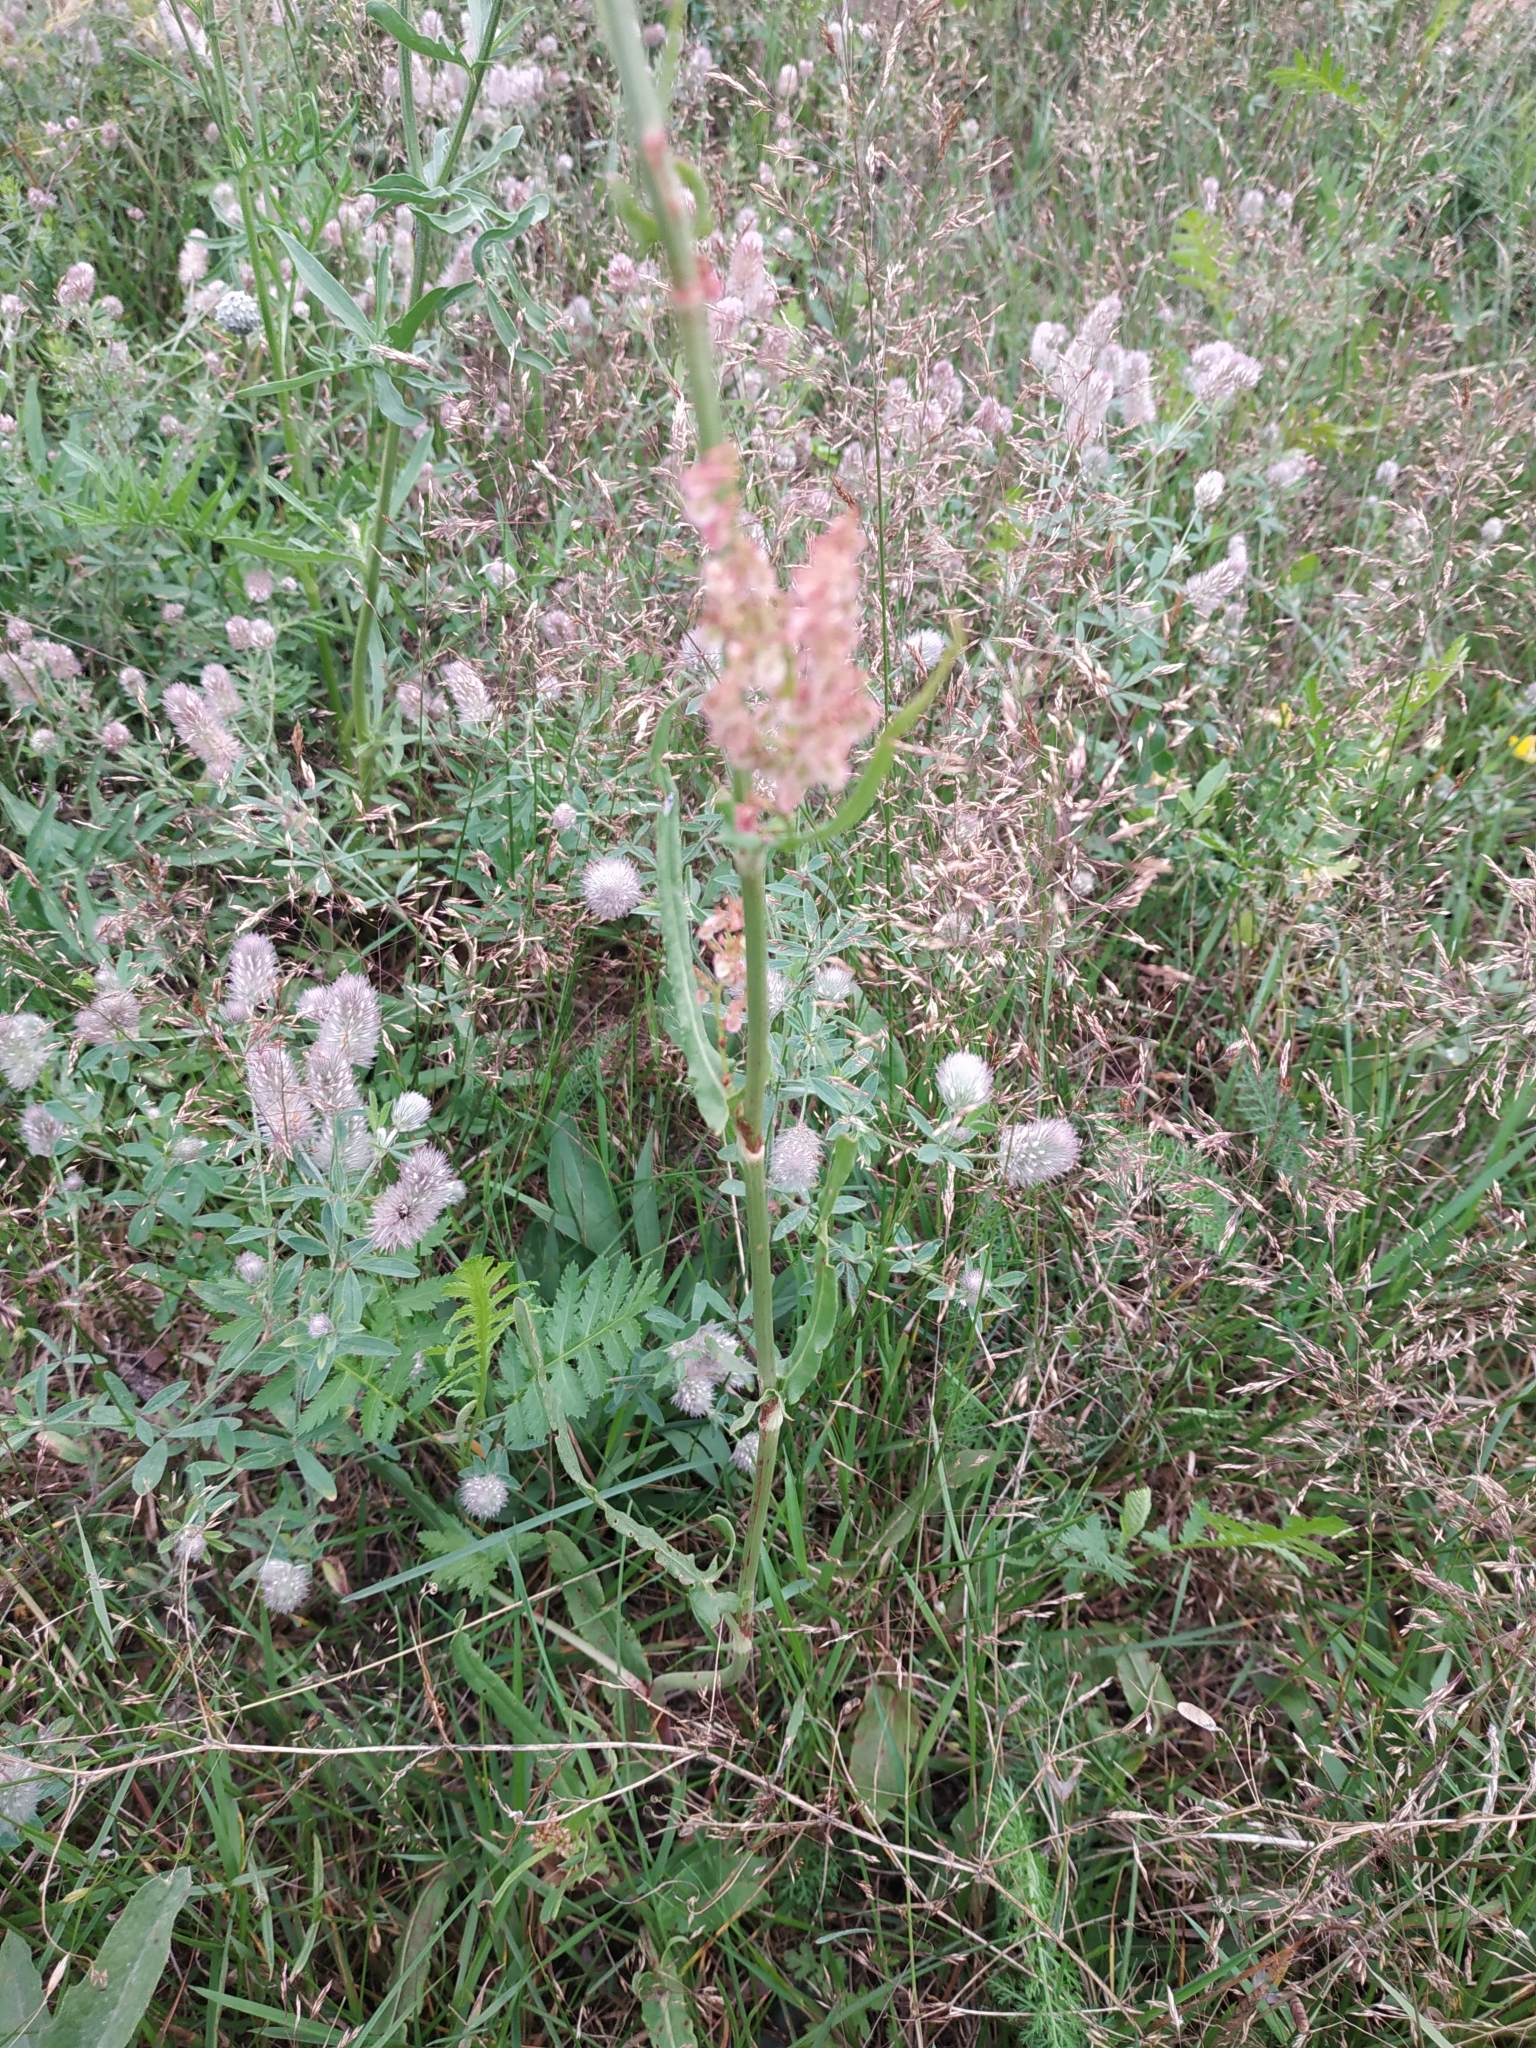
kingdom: Plantae
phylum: Tracheophyta
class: Magnoliopsida
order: Caryophyllales
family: Polygonaceae
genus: Rumex
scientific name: Rumex thyrsiflorus
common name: Garden sorrel
